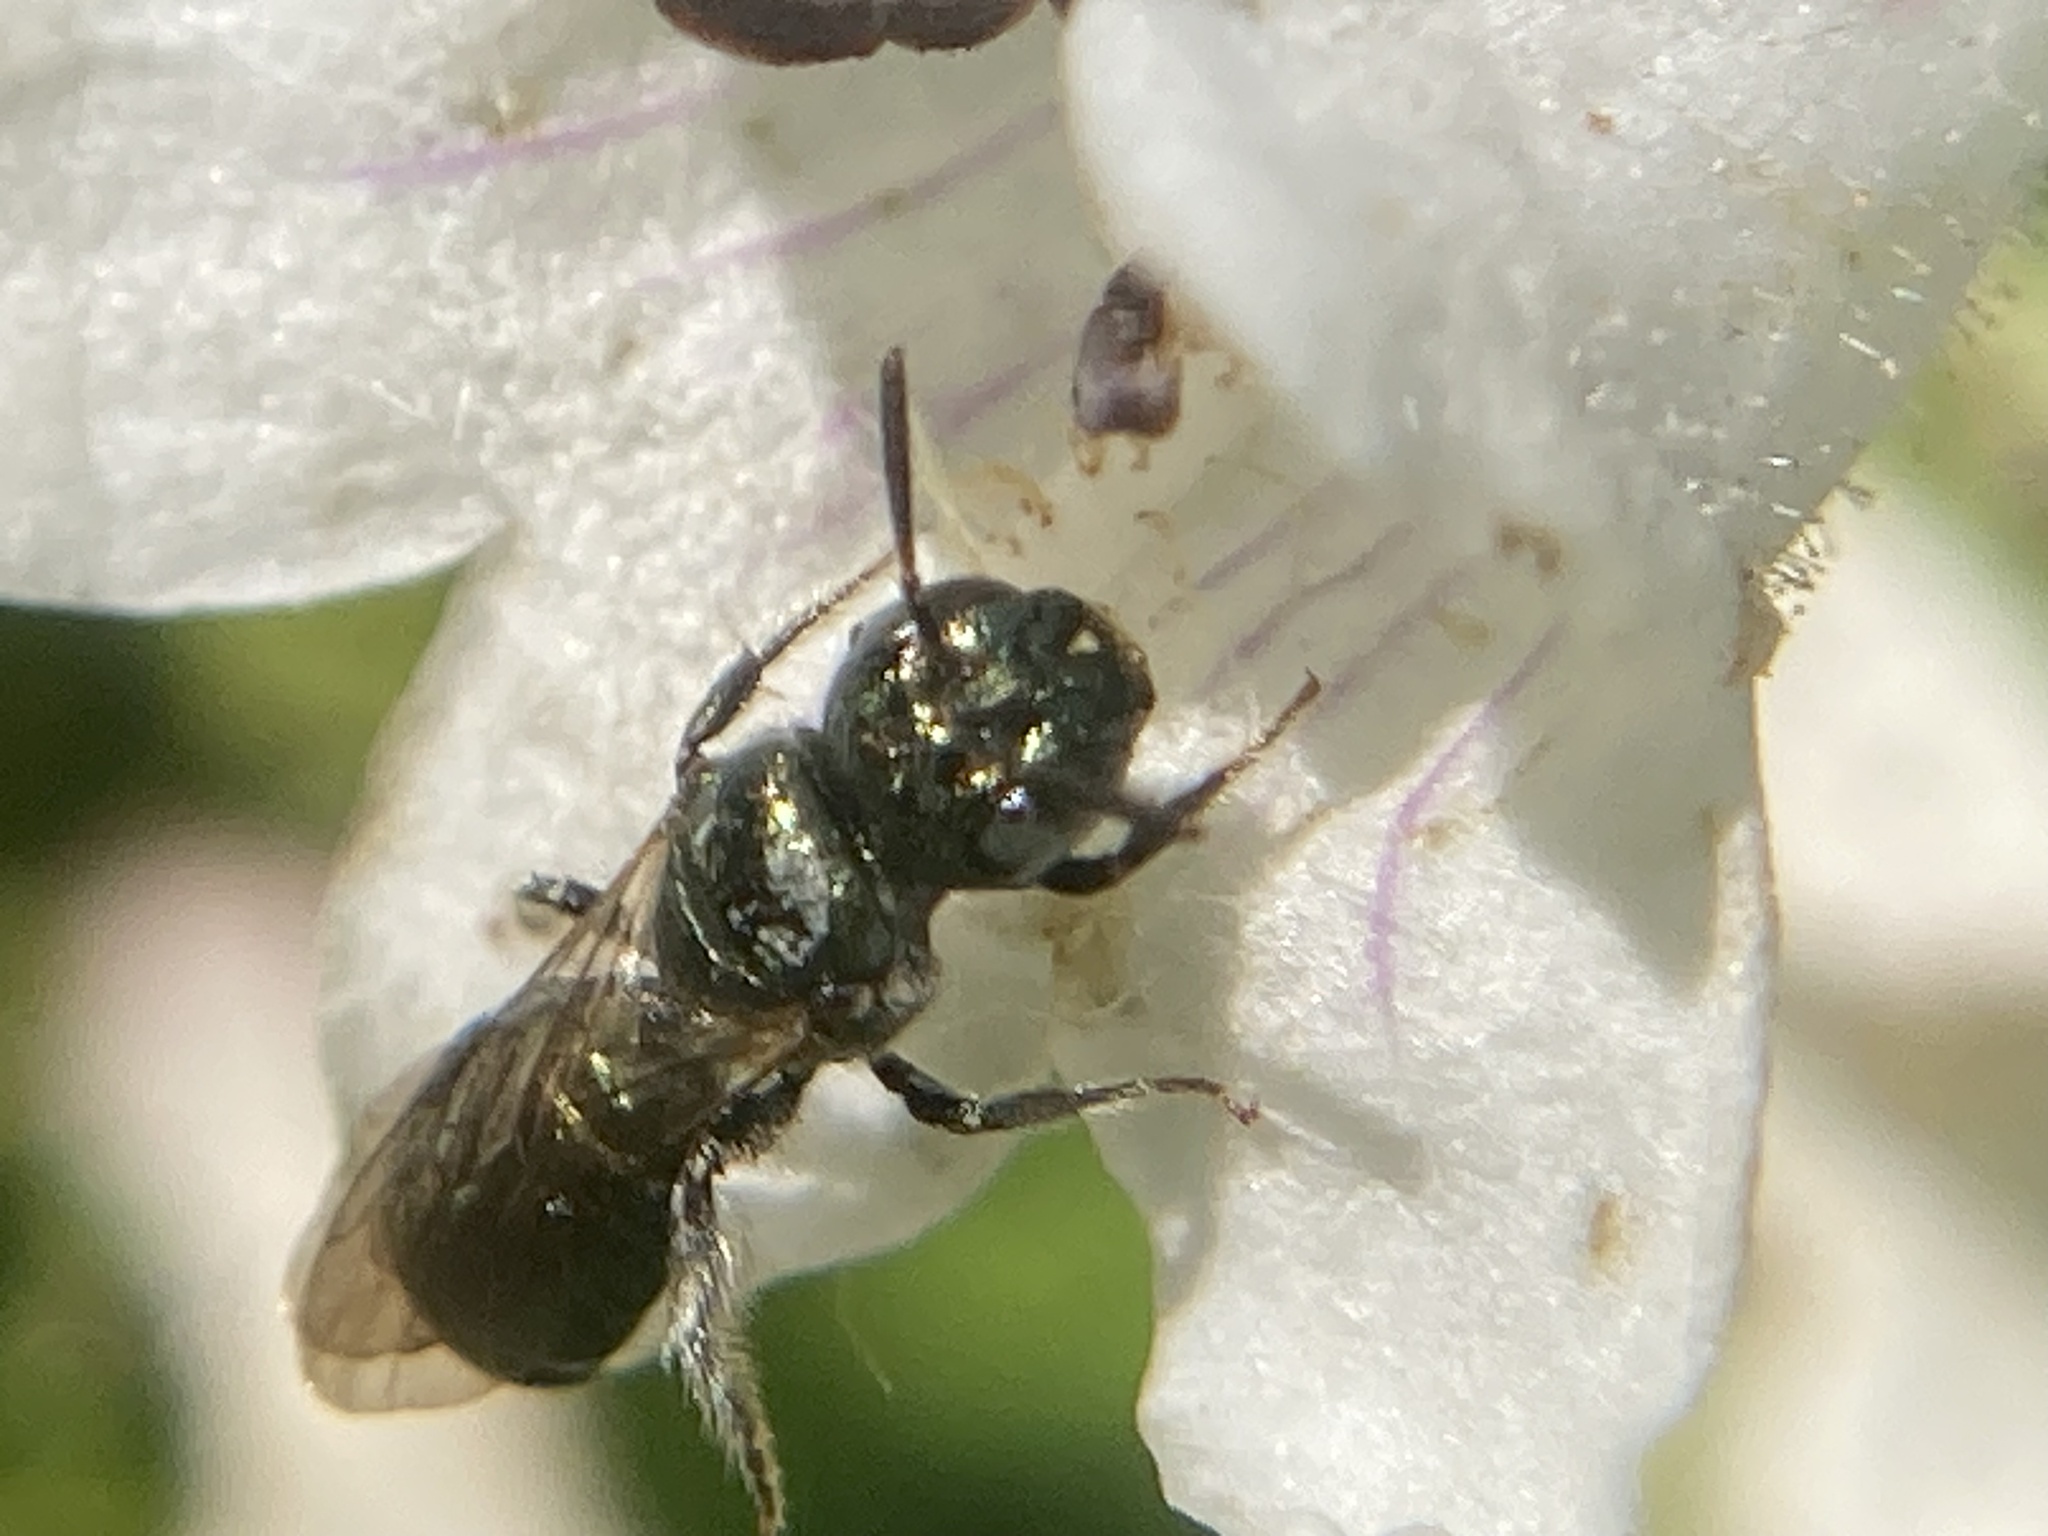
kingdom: Animalia
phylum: Arthropoda
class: Insecta
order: Hymenoptera
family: Apidae
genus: Zadontomerus
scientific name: Zadontomerus
